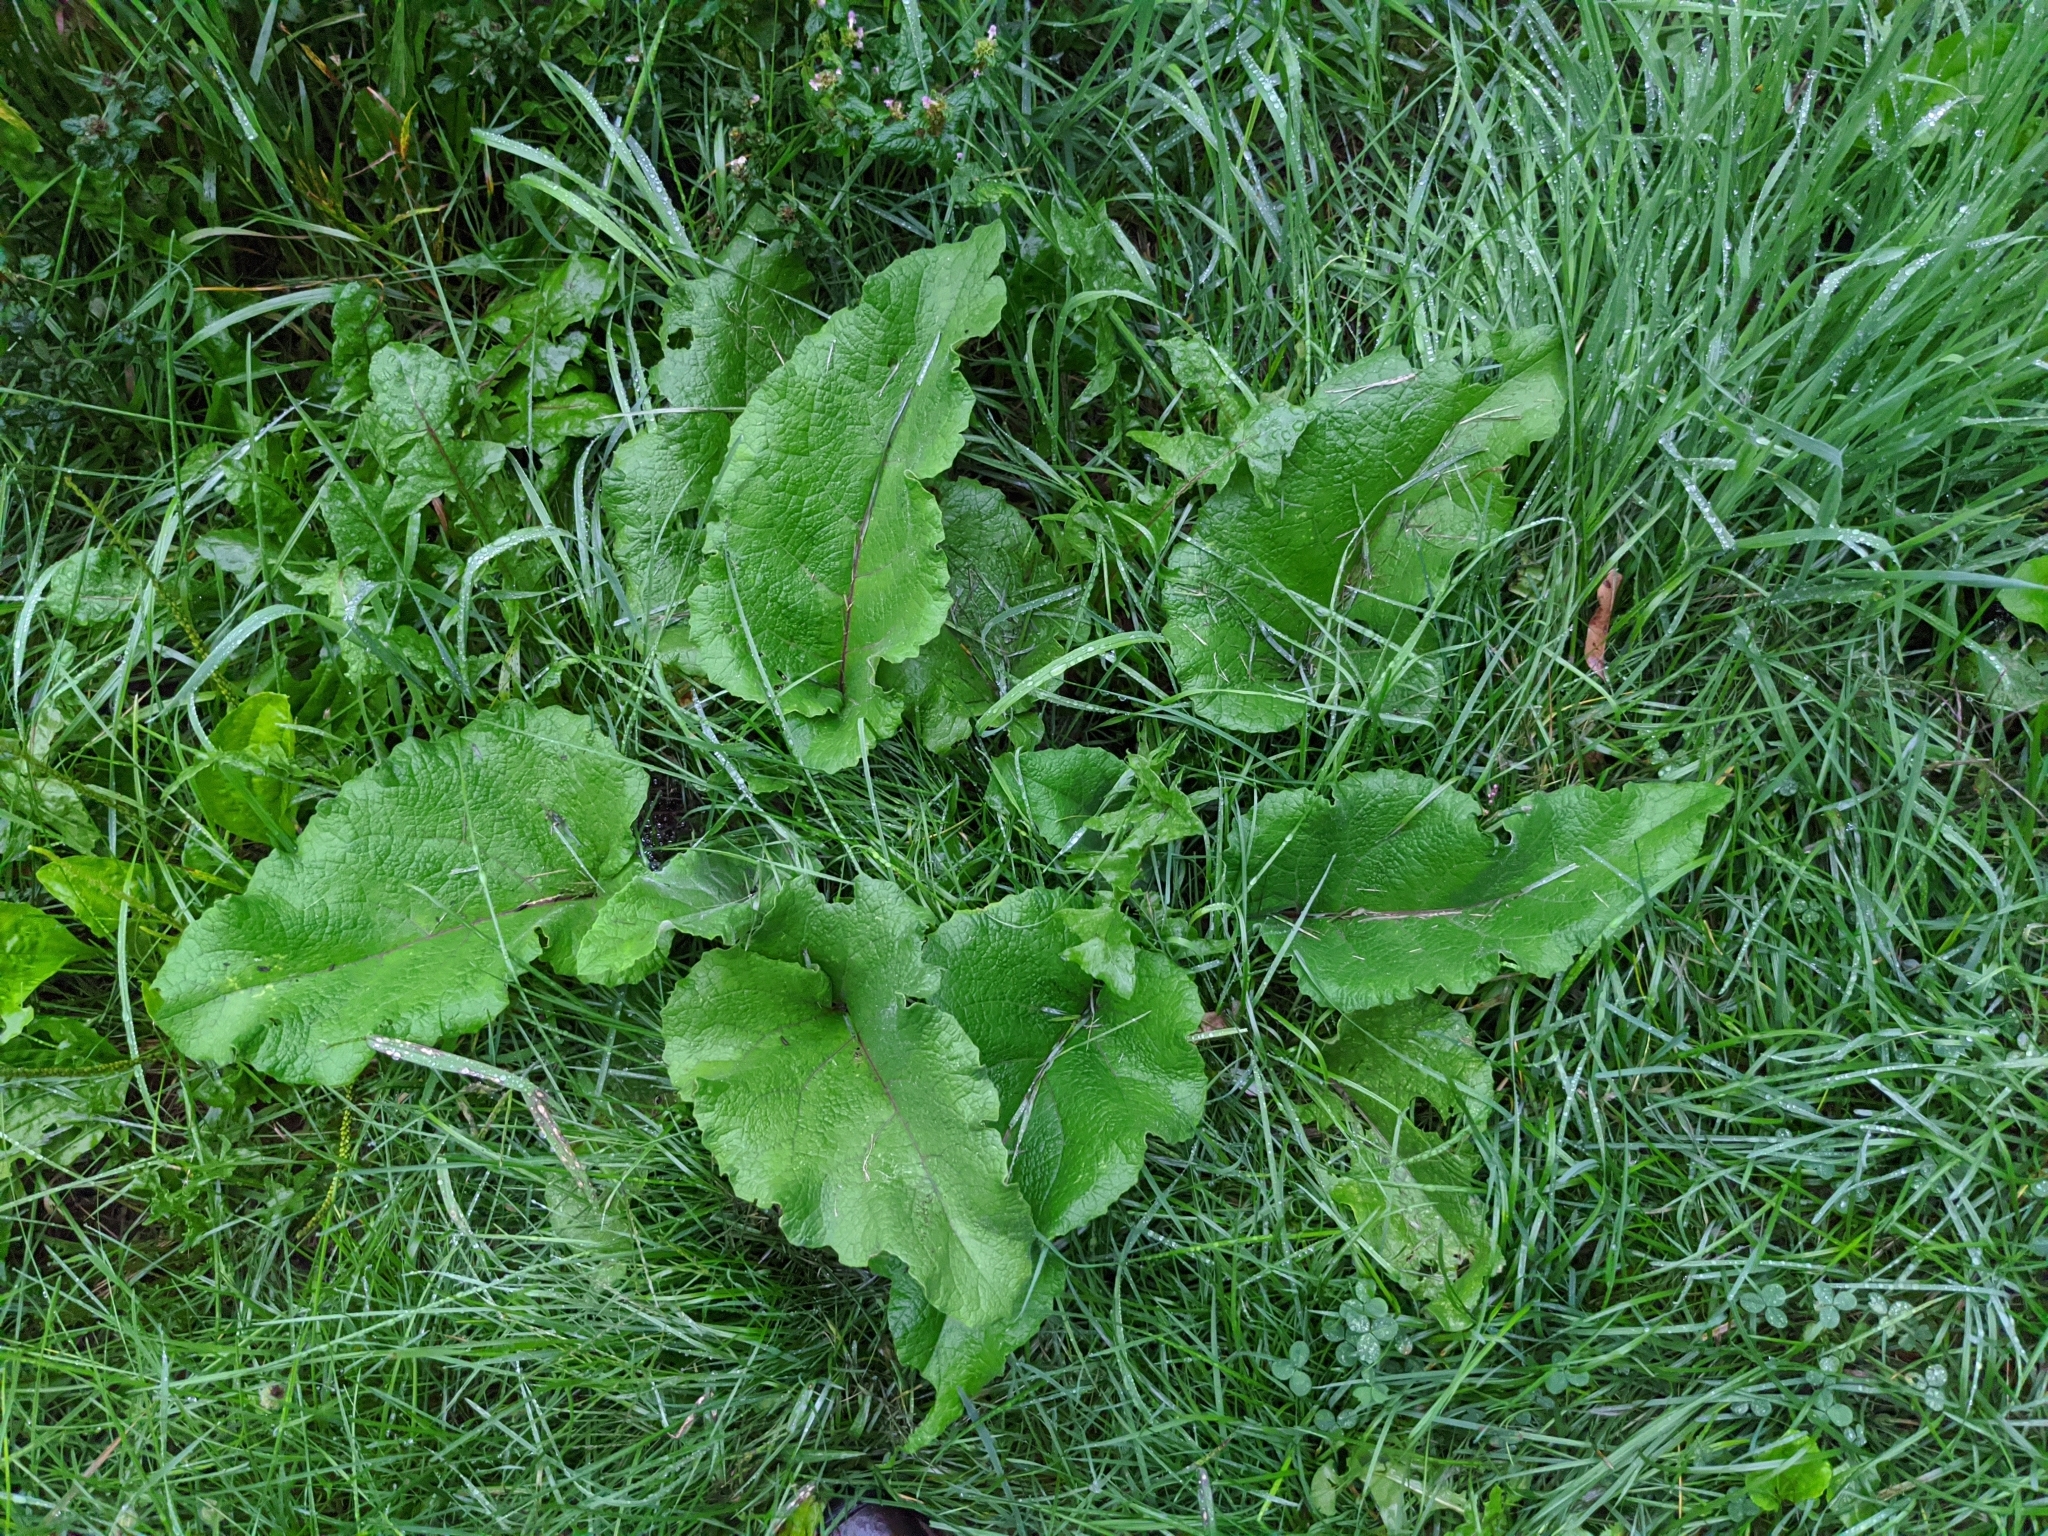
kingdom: Plantae
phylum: Tracheophyta
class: Magnoliopsida
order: Asterales
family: Asteraceae
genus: Arctium
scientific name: Arctium
